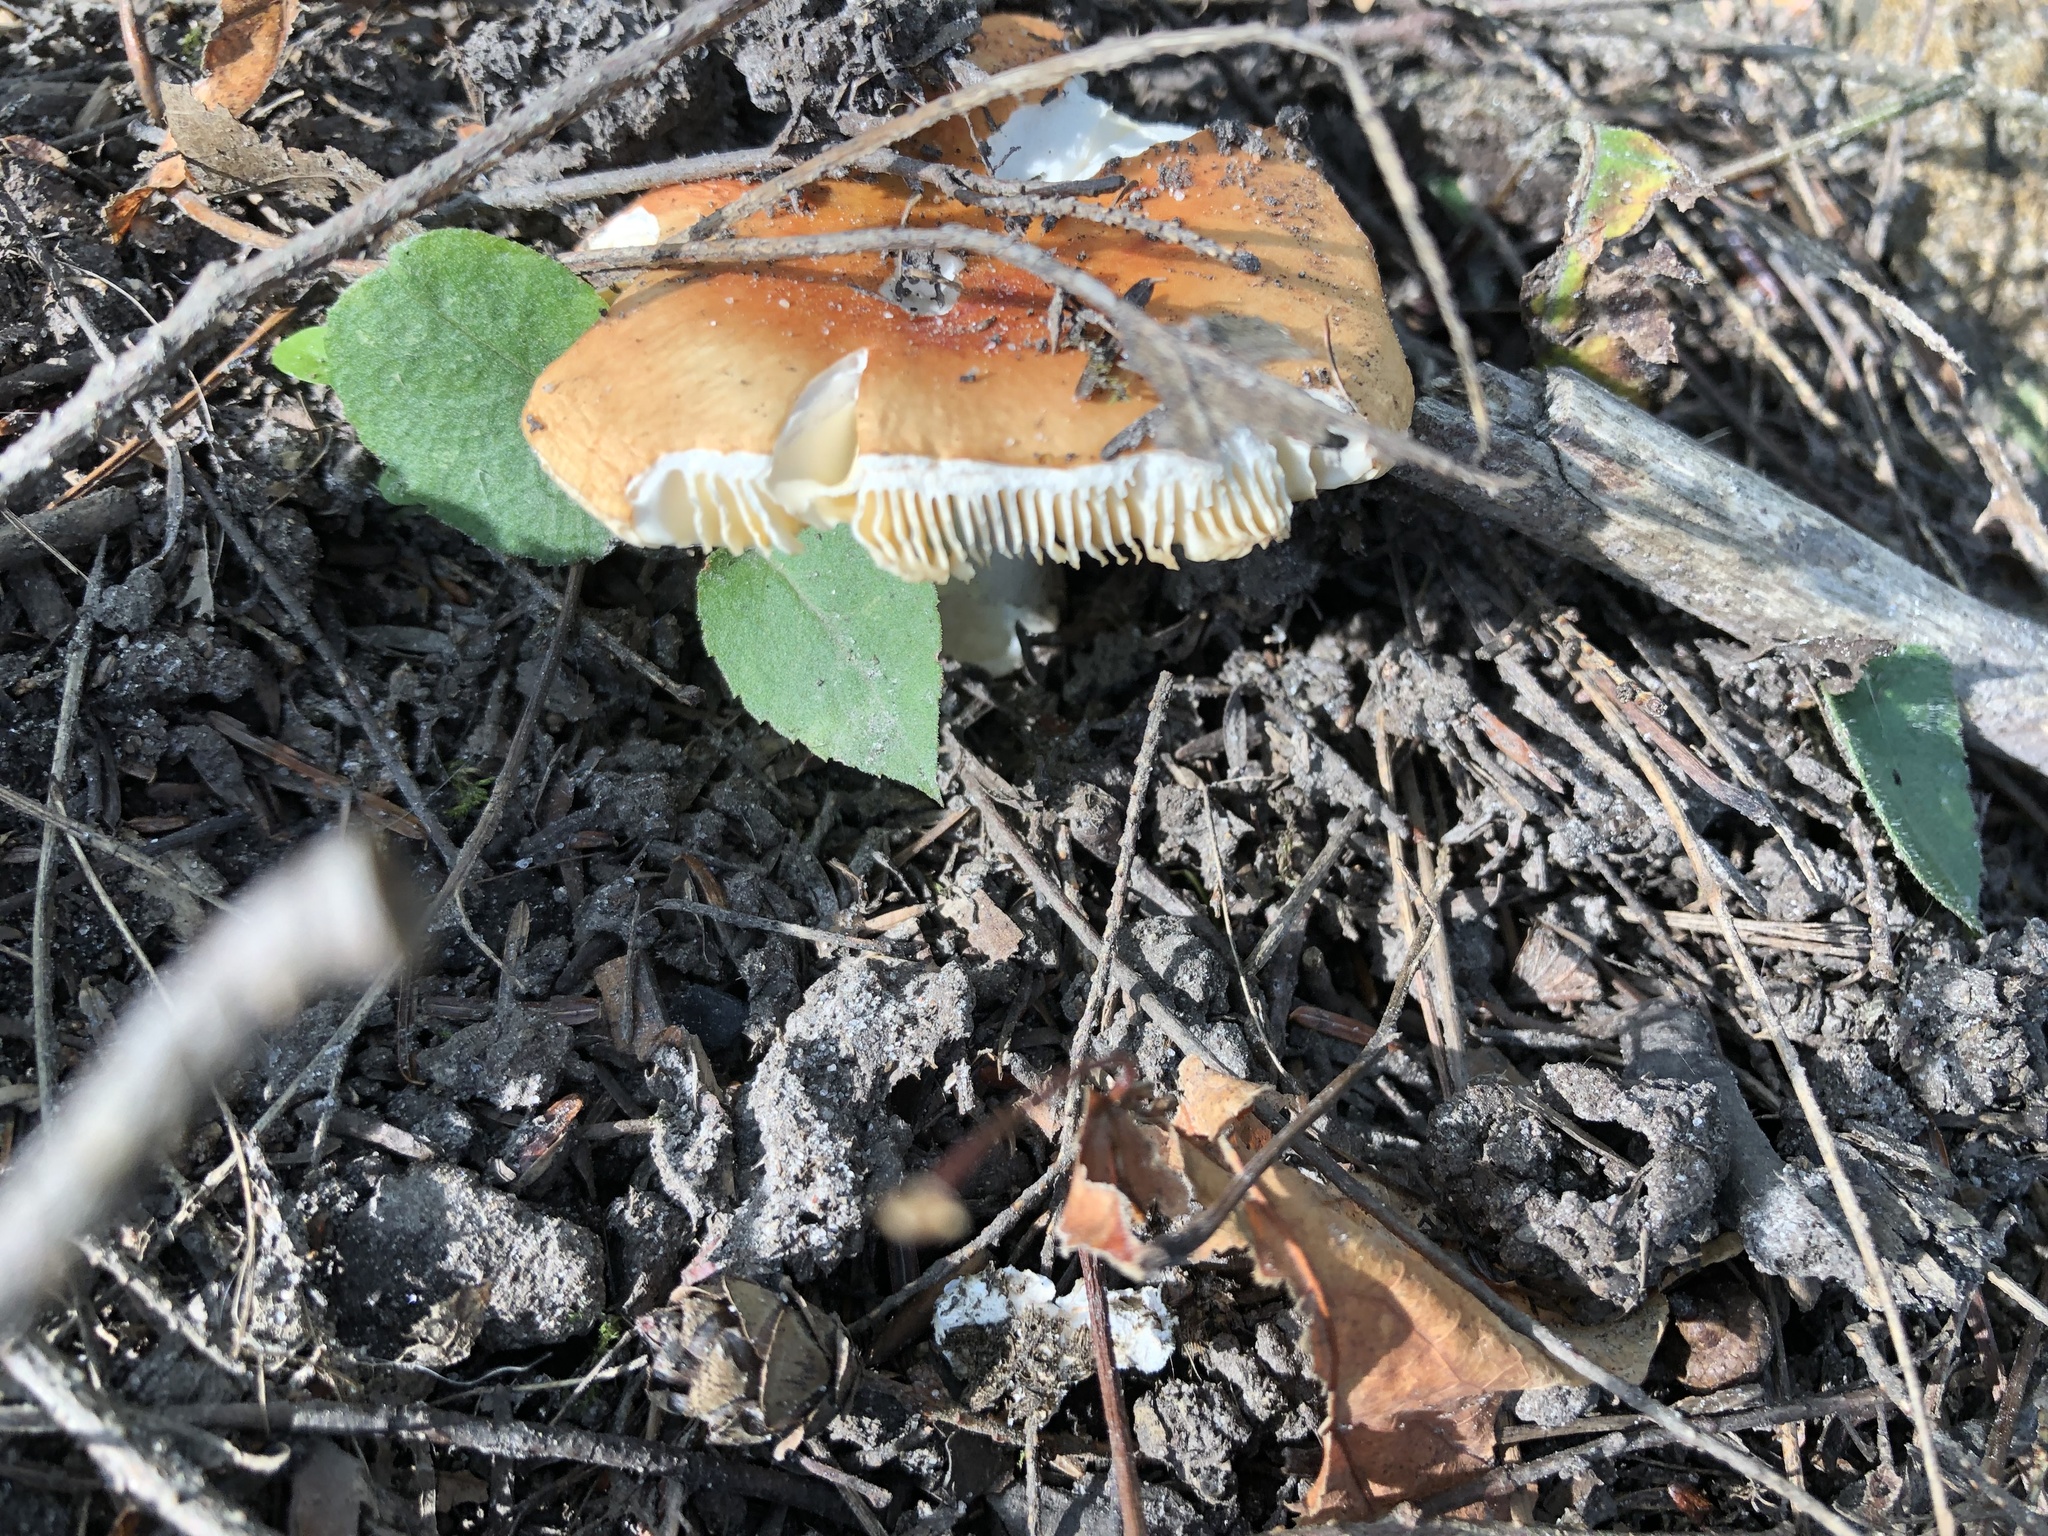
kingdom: Fungi
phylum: Basidiomycota
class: Agaricomycetes
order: Russulales
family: Russulaceae
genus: Russula
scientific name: Russula decolorans
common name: Copper brittlegill
